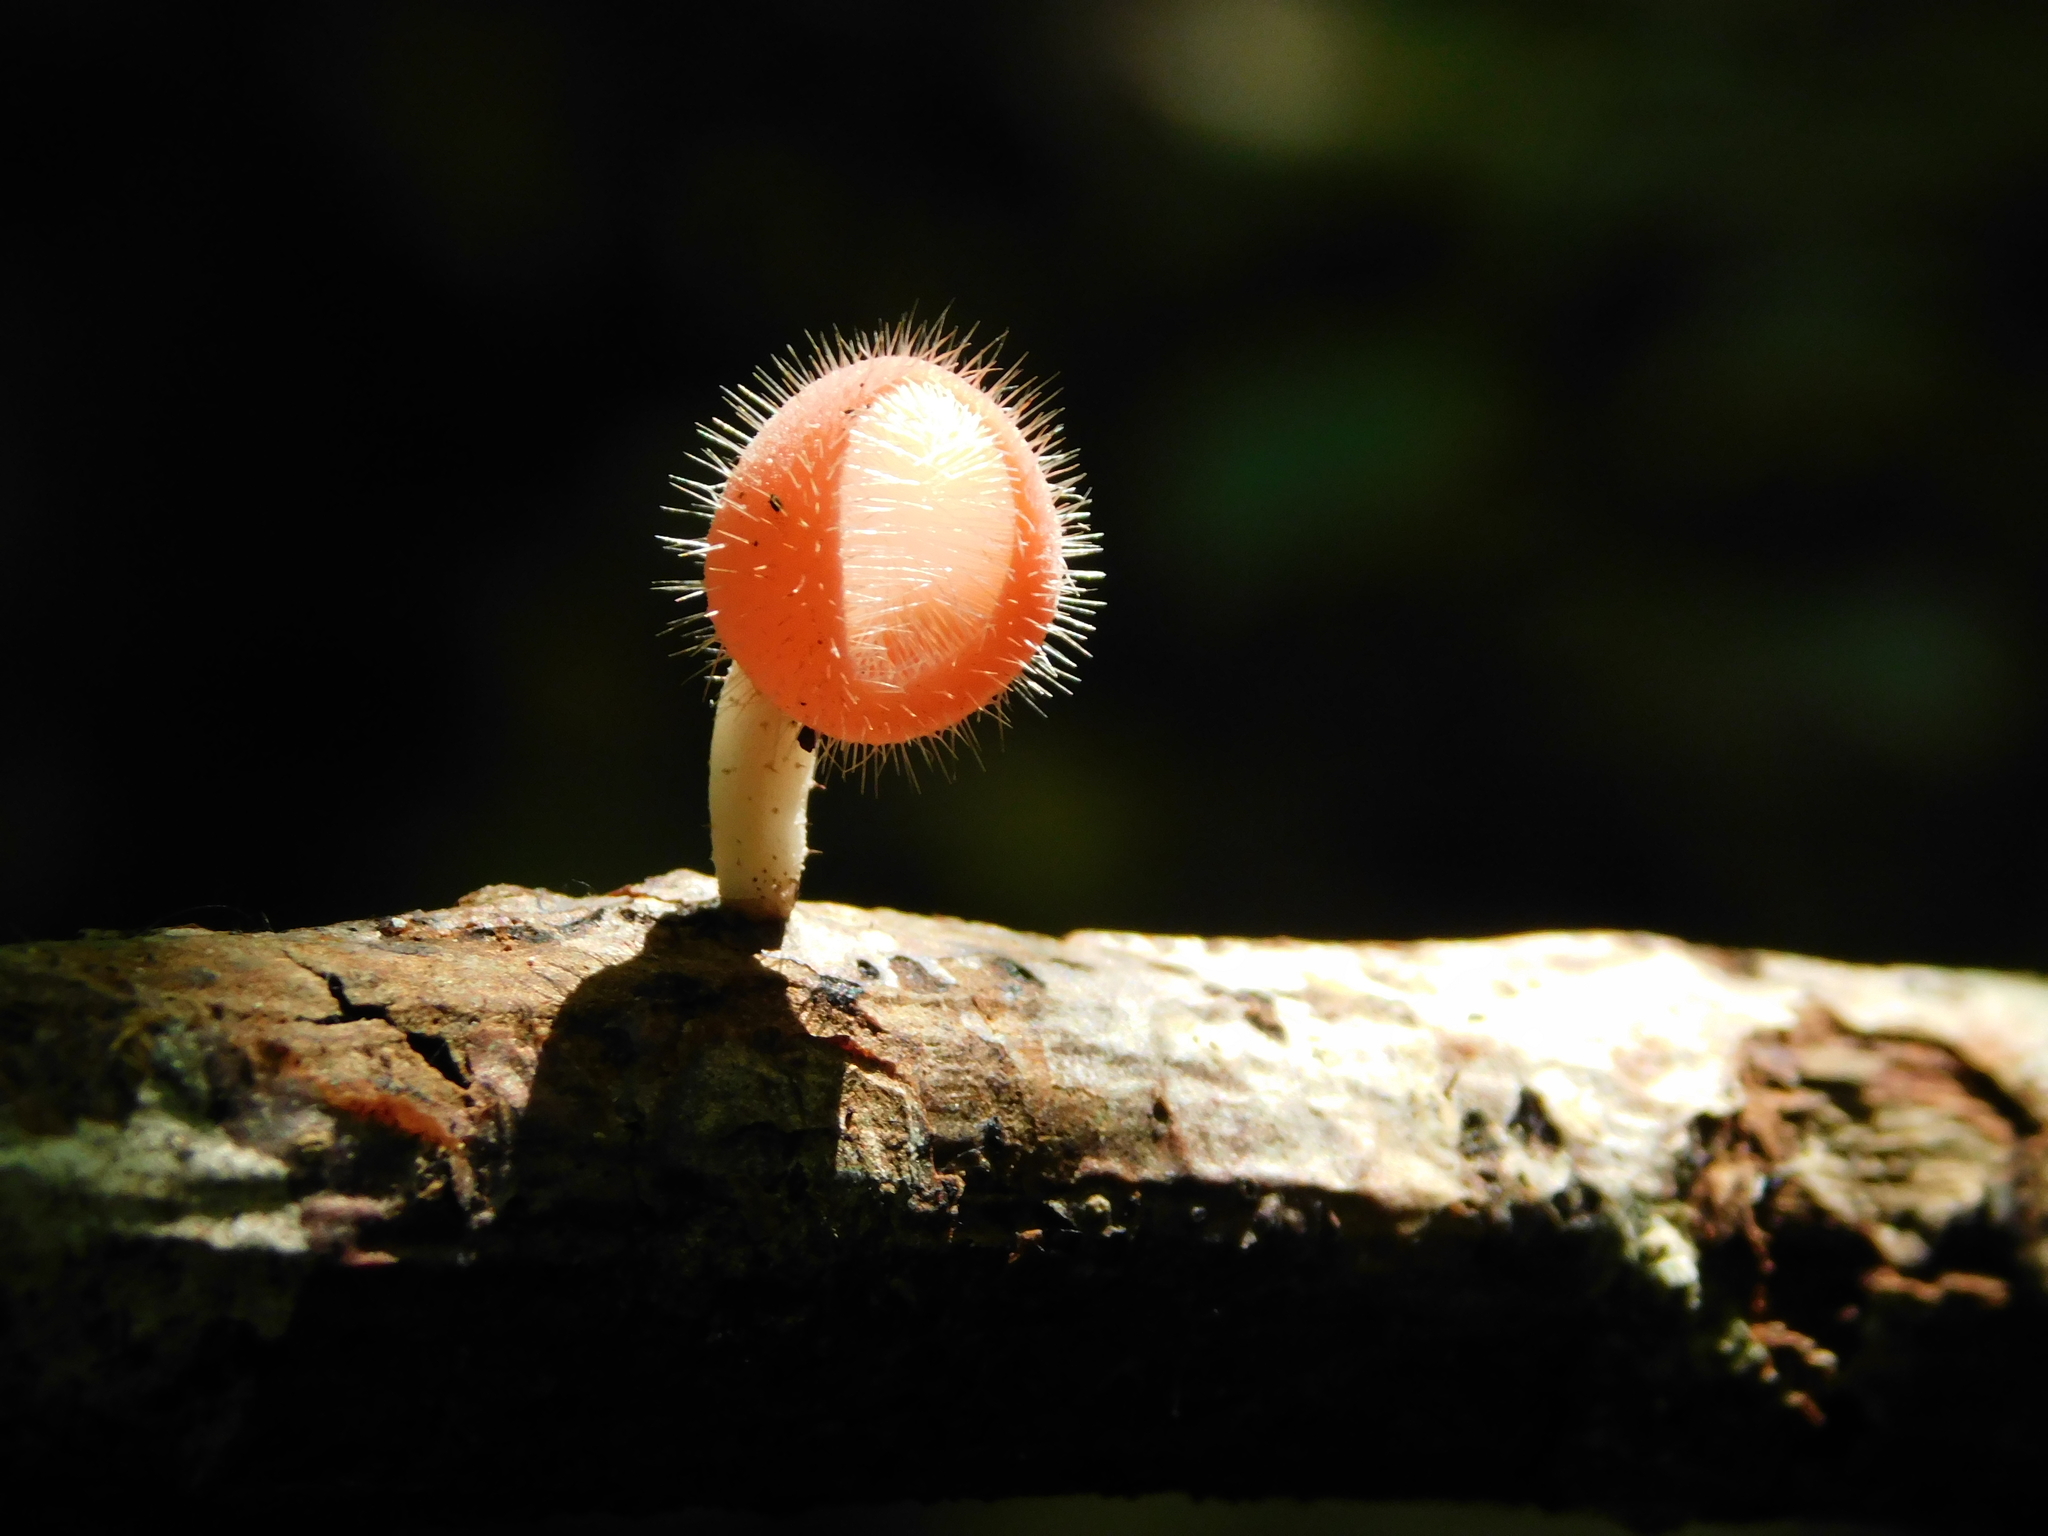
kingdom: Fungi
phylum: Ascomycota
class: Pezizomycetes
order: Pezizales
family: Sarcoscyphaceae
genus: Cookeina
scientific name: Cookeina tricholoma
